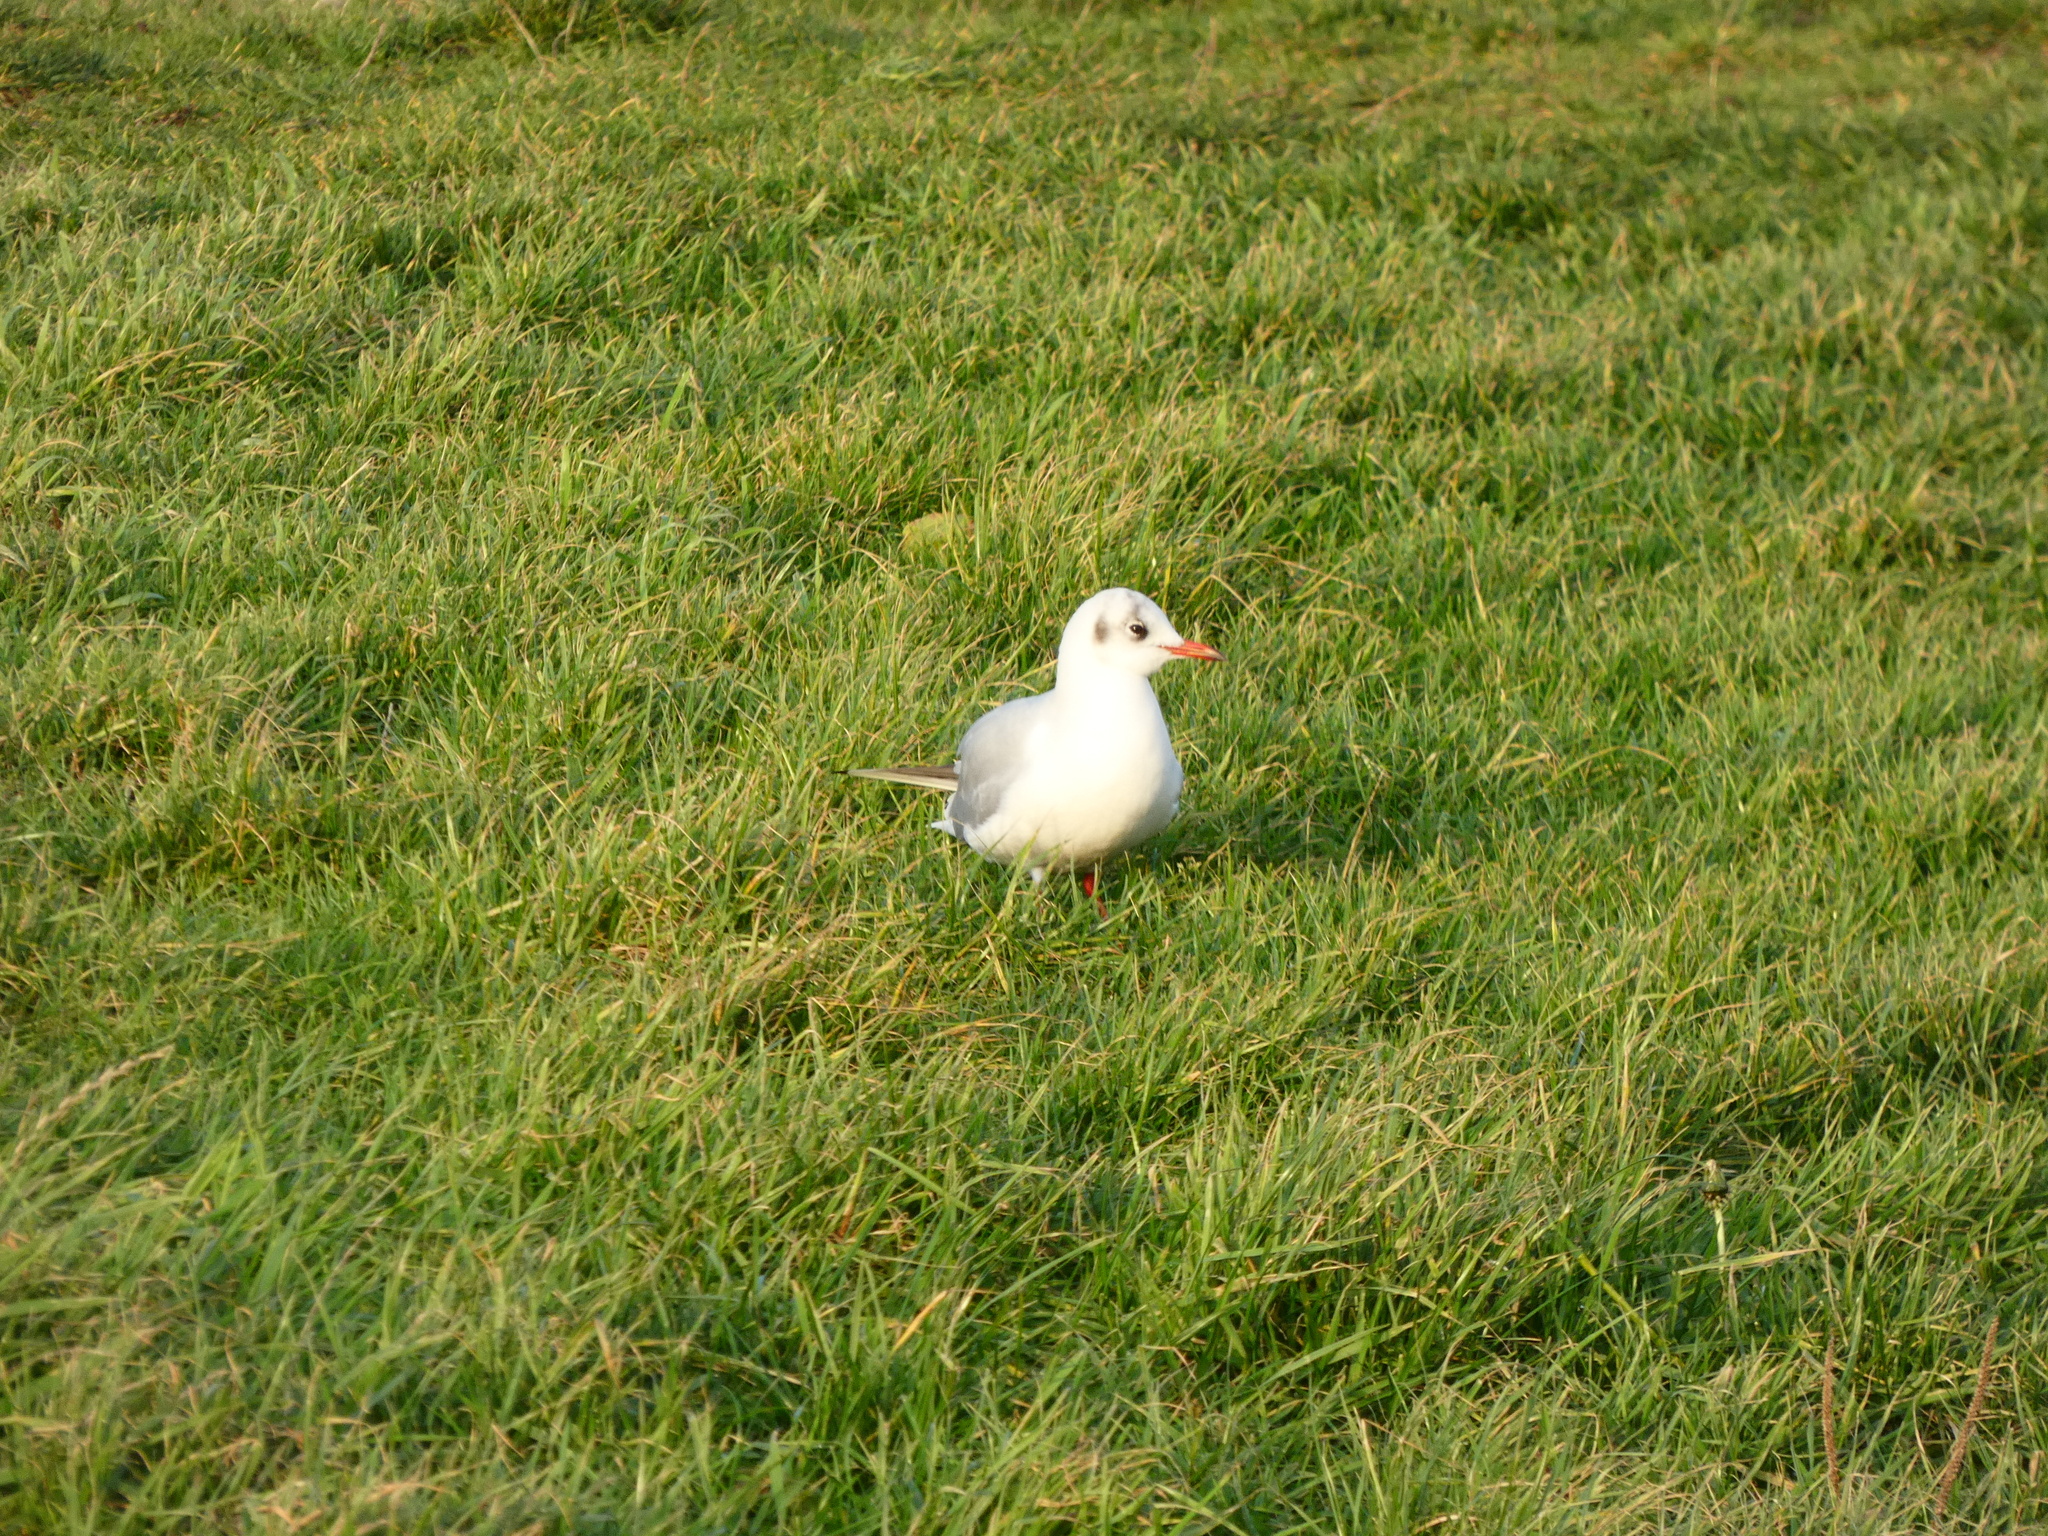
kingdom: Animalia
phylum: Chordata
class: Aves
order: Charadriiformes
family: Laridae
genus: Chroicocephalus
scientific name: Chroicocephalus ridibundus
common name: Black-headed gull
